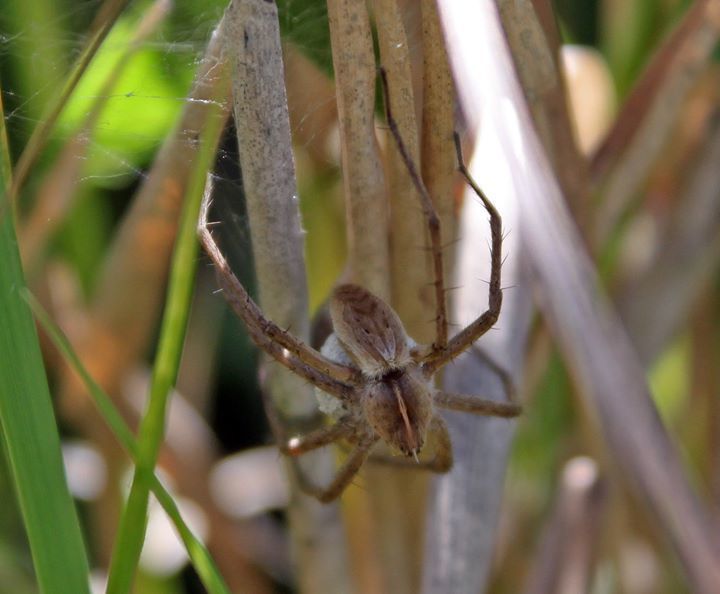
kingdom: Animalia
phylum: Arthropoda
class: Arachnida
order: Araneae
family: Pisauridae
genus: Pisaura
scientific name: Pisaura mirabilis
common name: Tent spider
